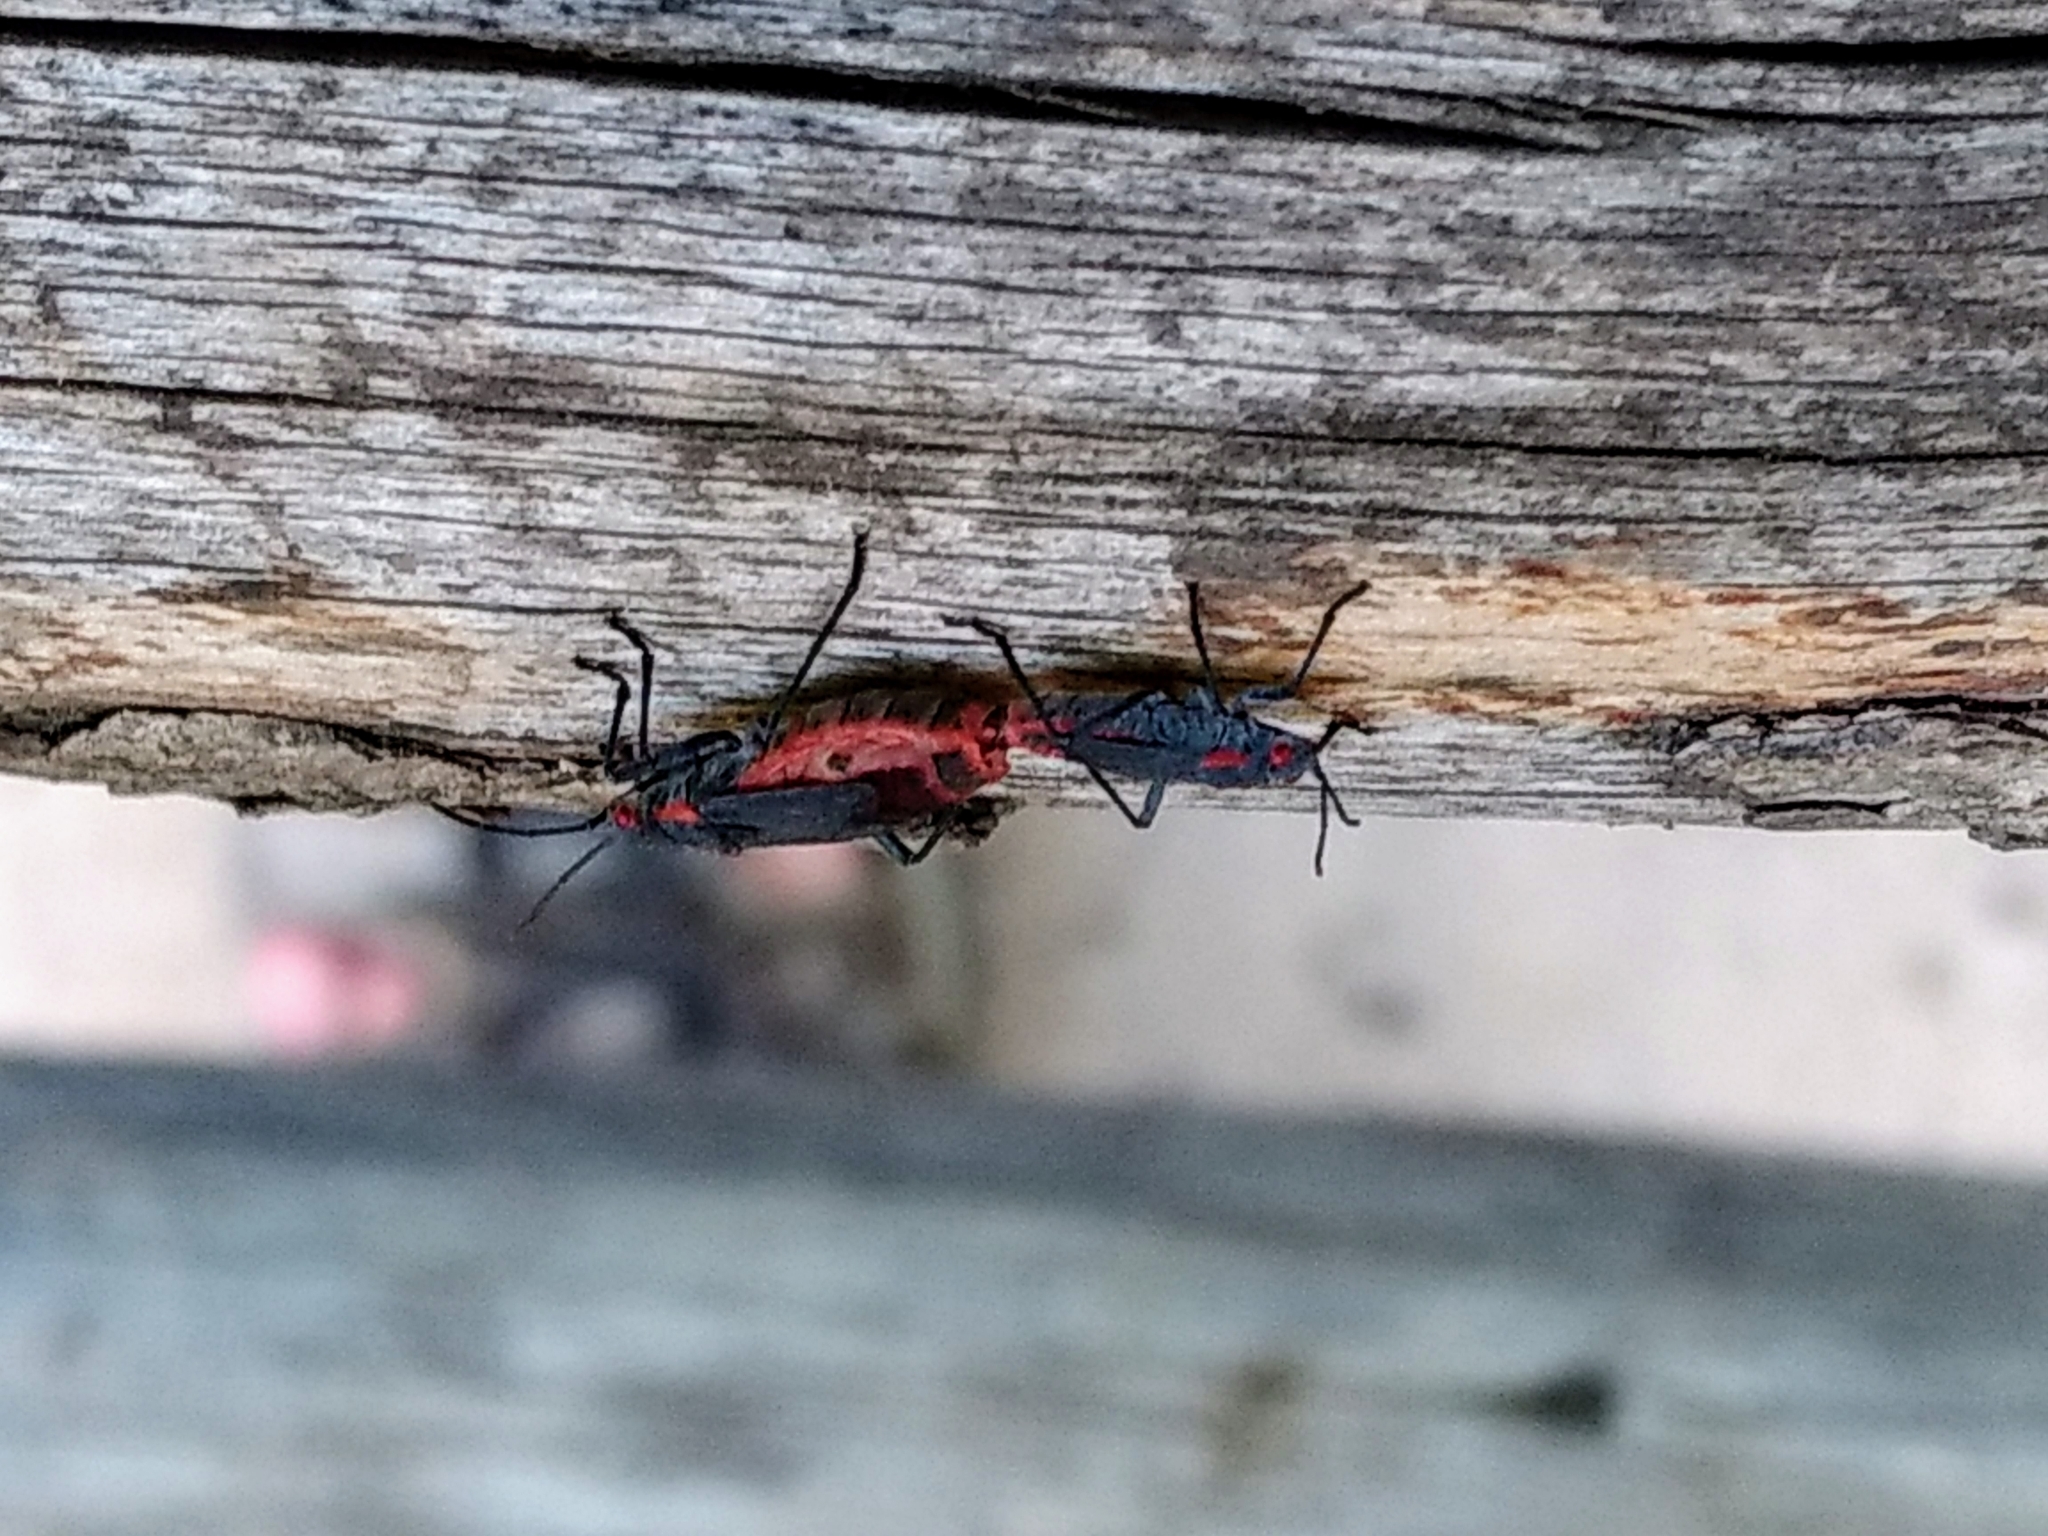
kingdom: Animalia
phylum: Arthropoda
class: Insecta
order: Hemiptera
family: Rhopalidae
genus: Jadera
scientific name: Jadera haematoloma
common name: Red-shouldered bug
